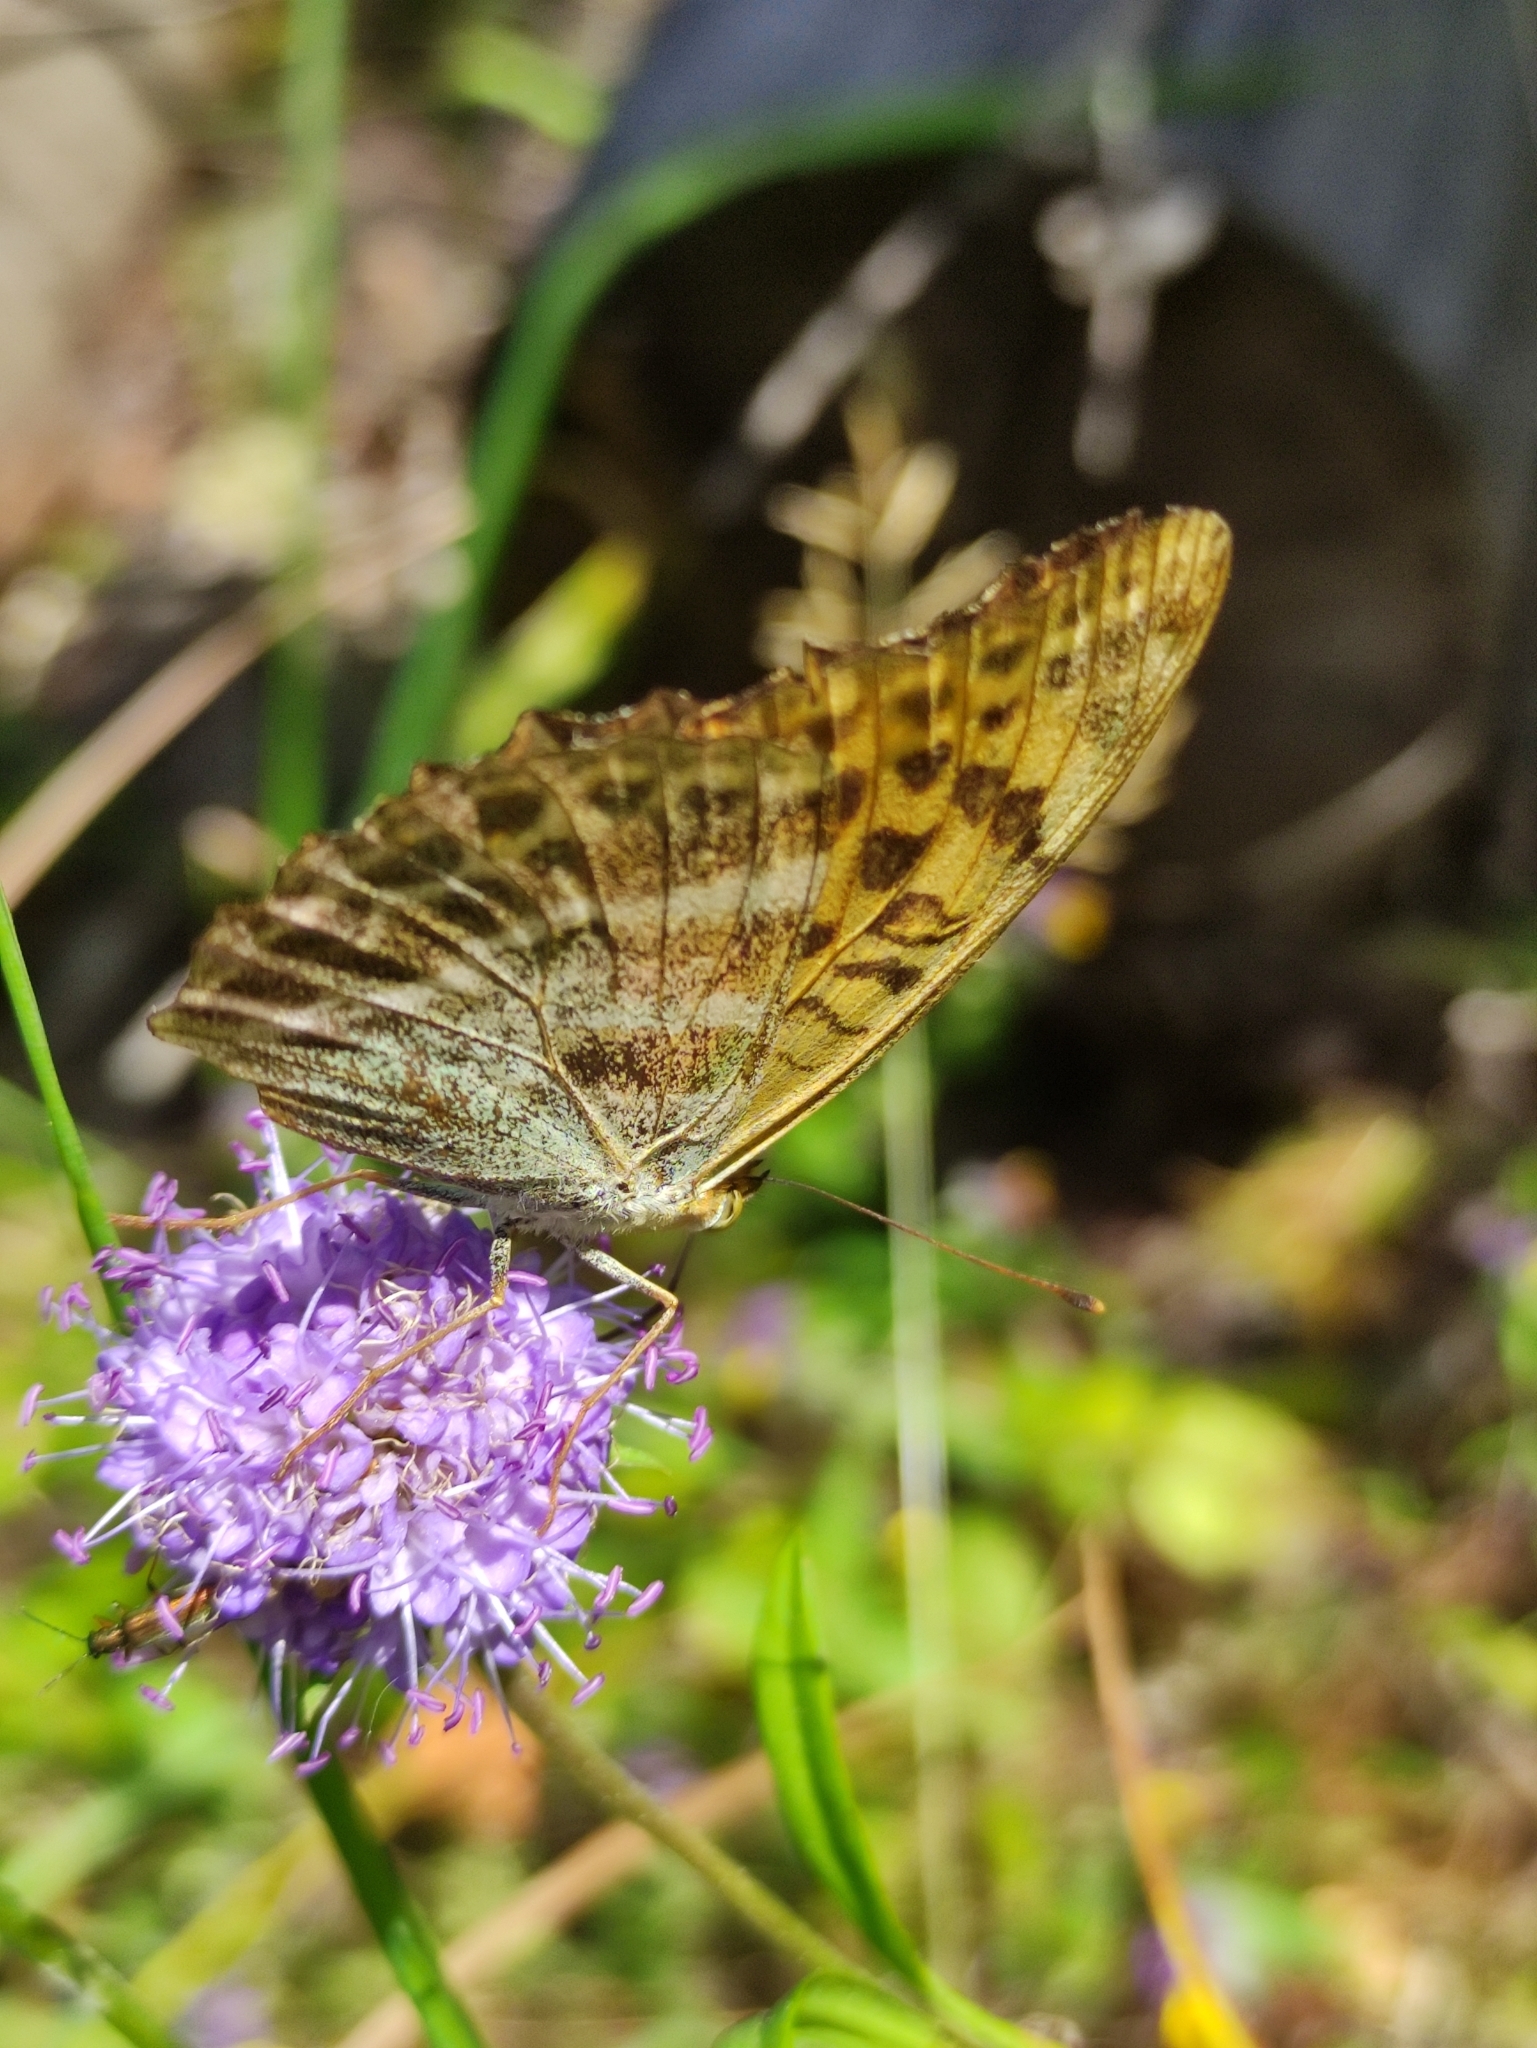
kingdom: Animalia
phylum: Arthropoda
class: Insecta
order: Lepidoptera
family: Nymphalidae
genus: Argynnis
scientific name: Argynnis paphia
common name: Silver-washed fritillary
